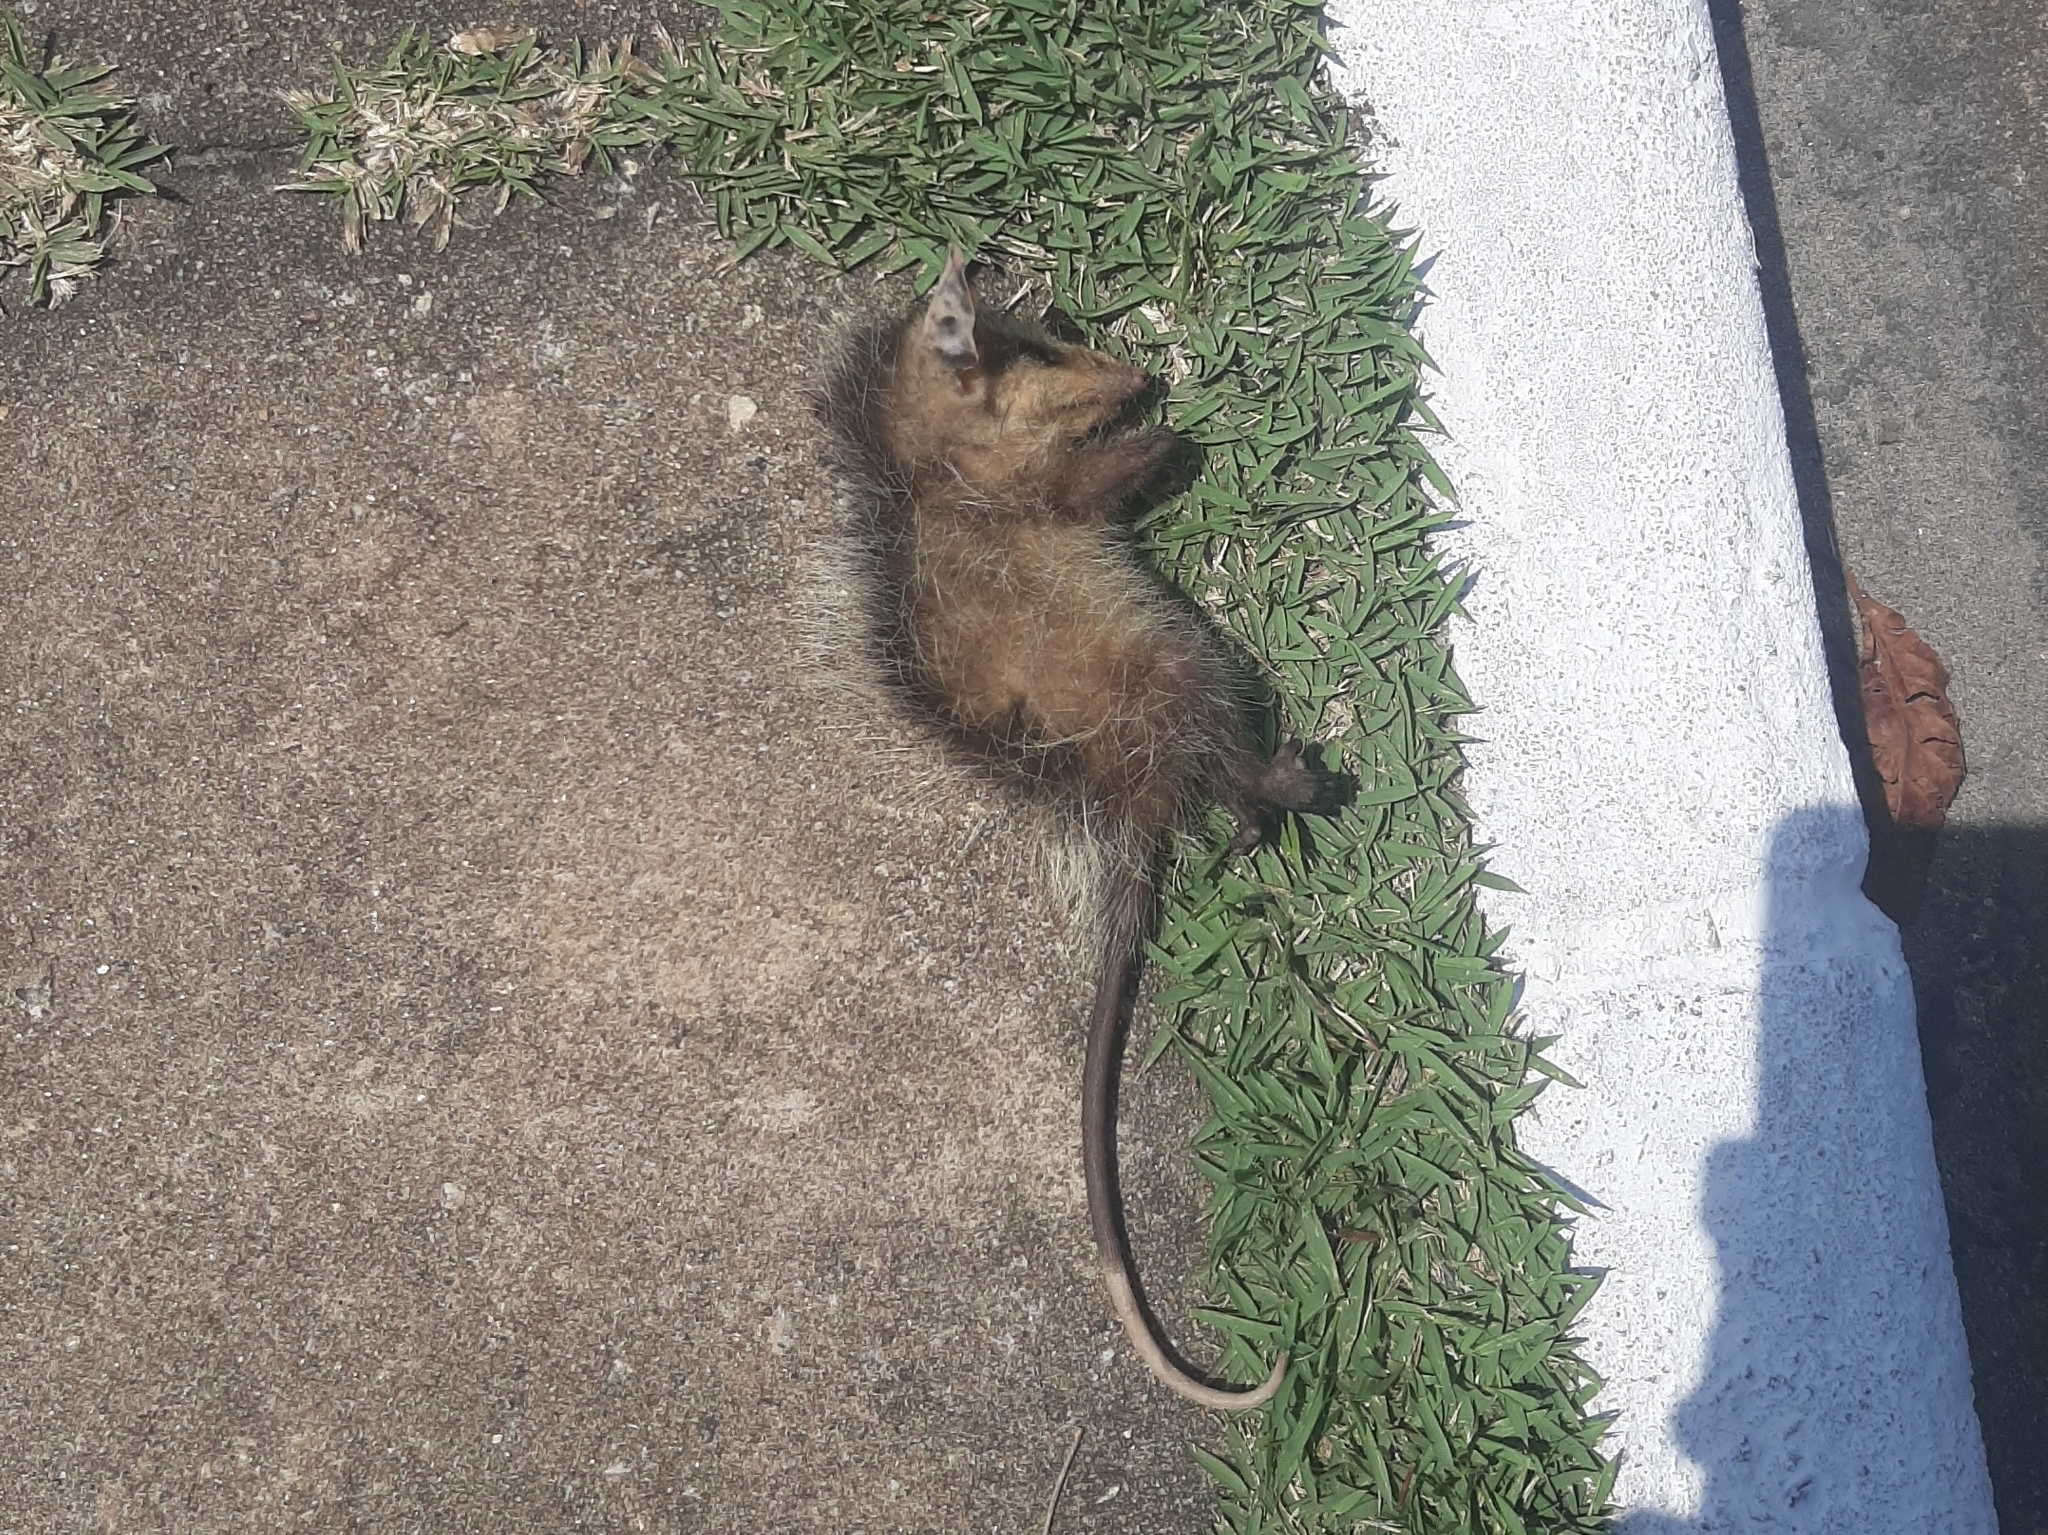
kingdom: Animalia
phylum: Chordata
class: Mammalia
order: Didelphimorphia
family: Didelphidae
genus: Didelphis
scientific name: Didelphis aurita
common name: Big-eared opossum
